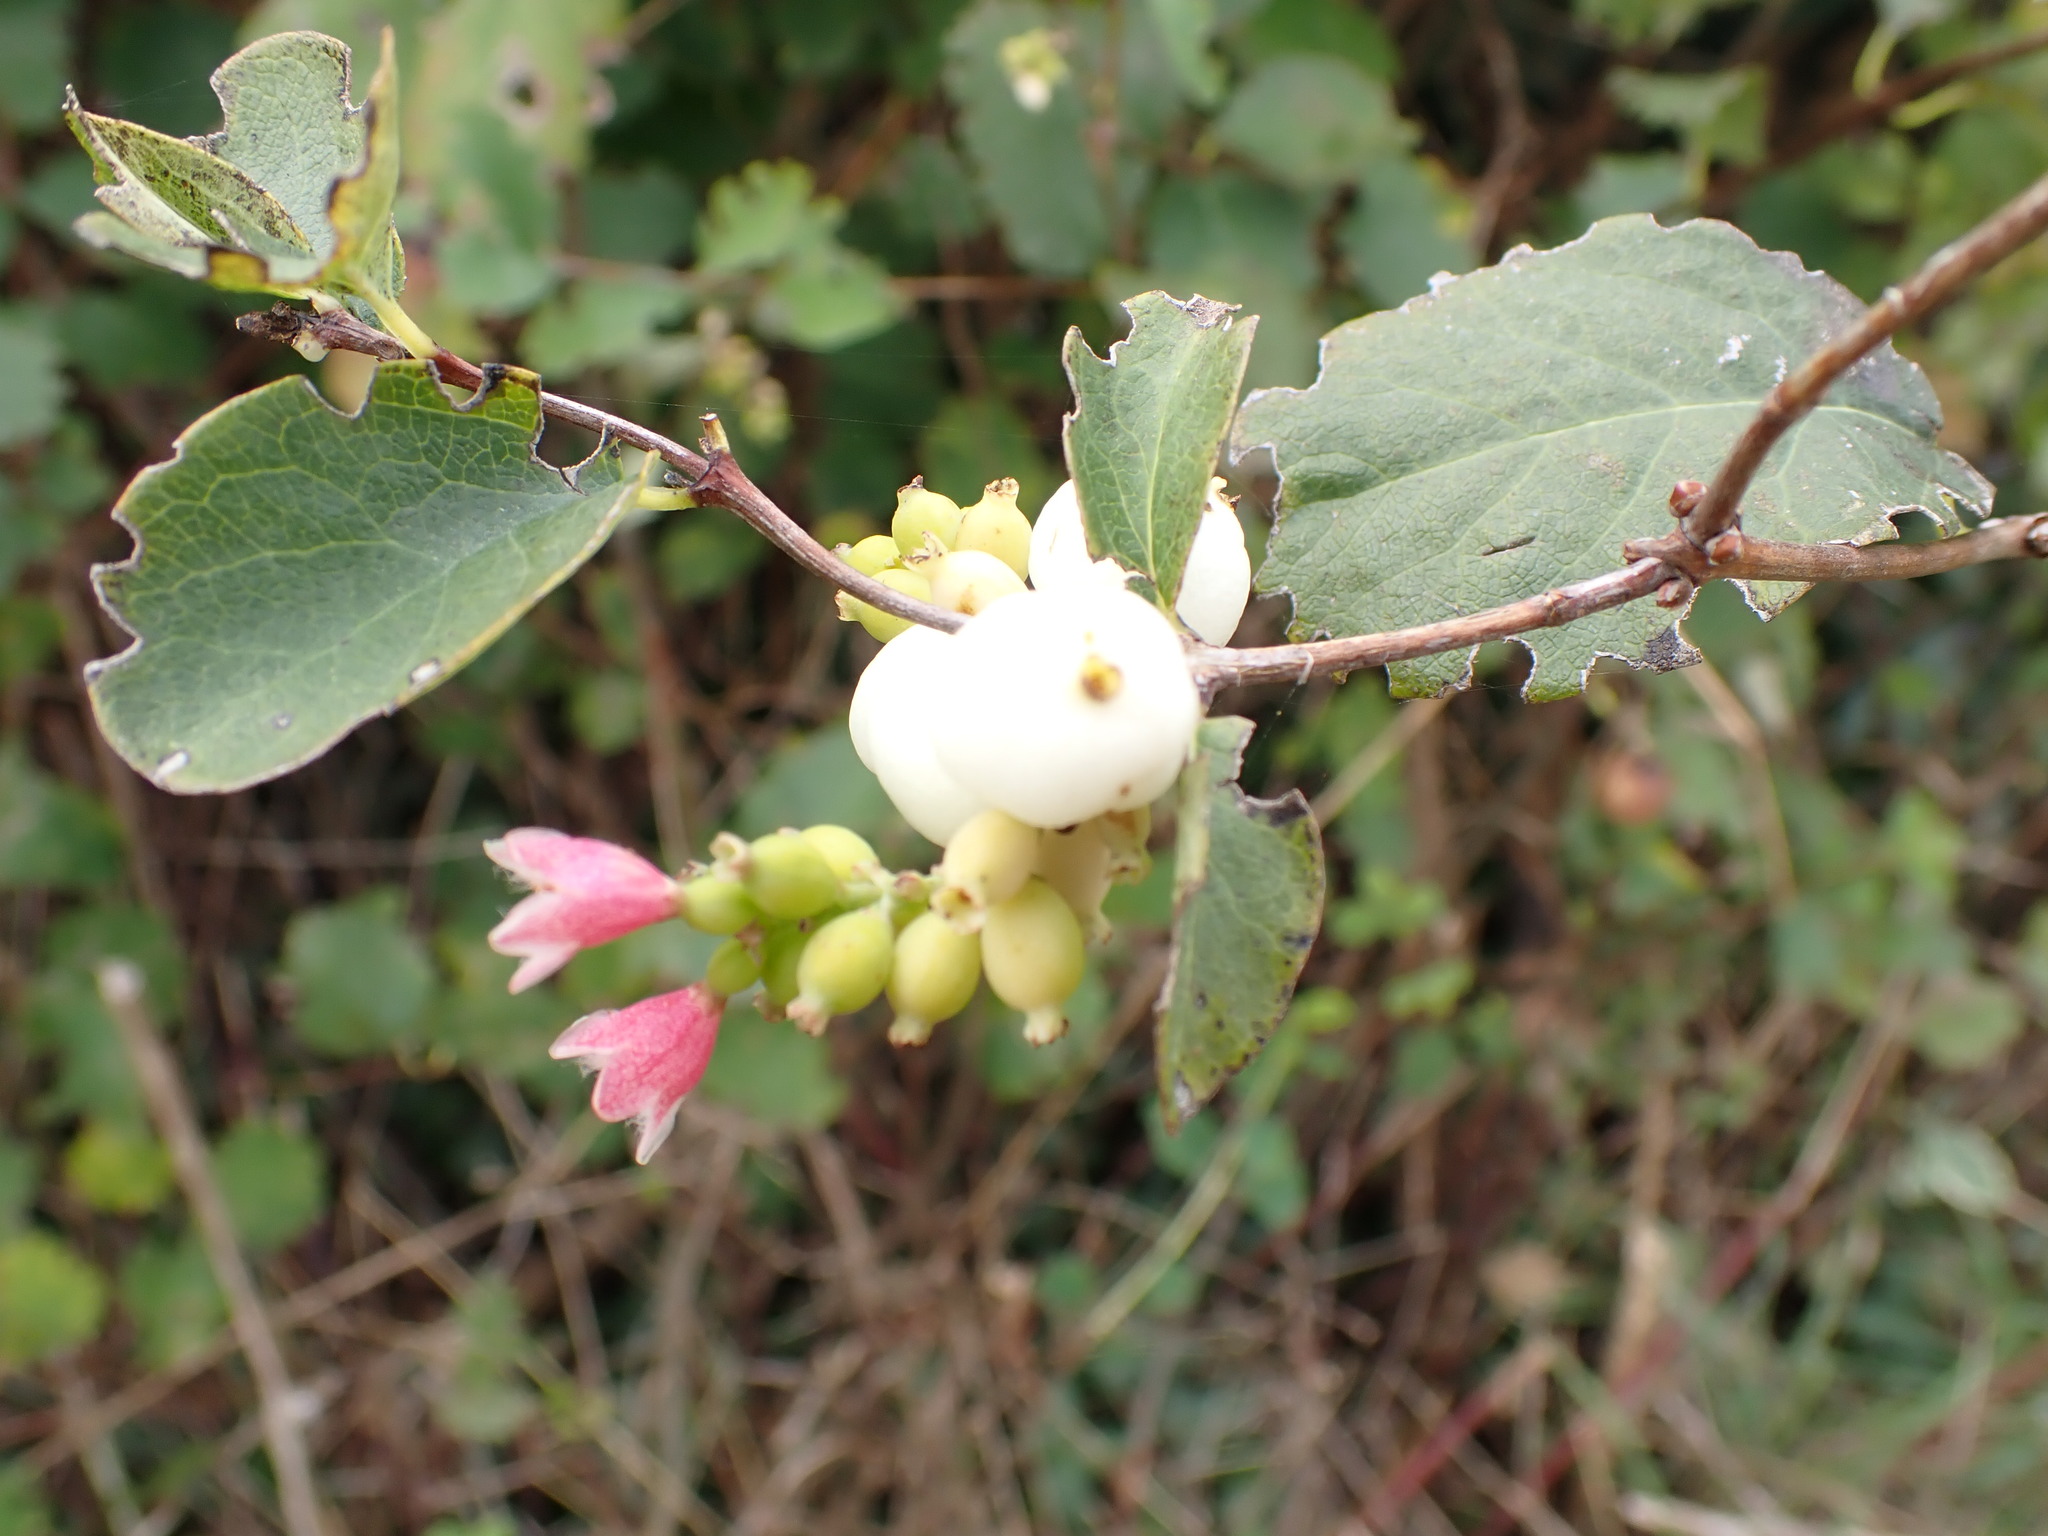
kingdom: Plantae
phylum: Tracheophyta
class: Magnoliopsida
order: Dipsacales
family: Caprifoliaceae
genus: Symphoricarpos
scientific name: Symphoricarpos albus
